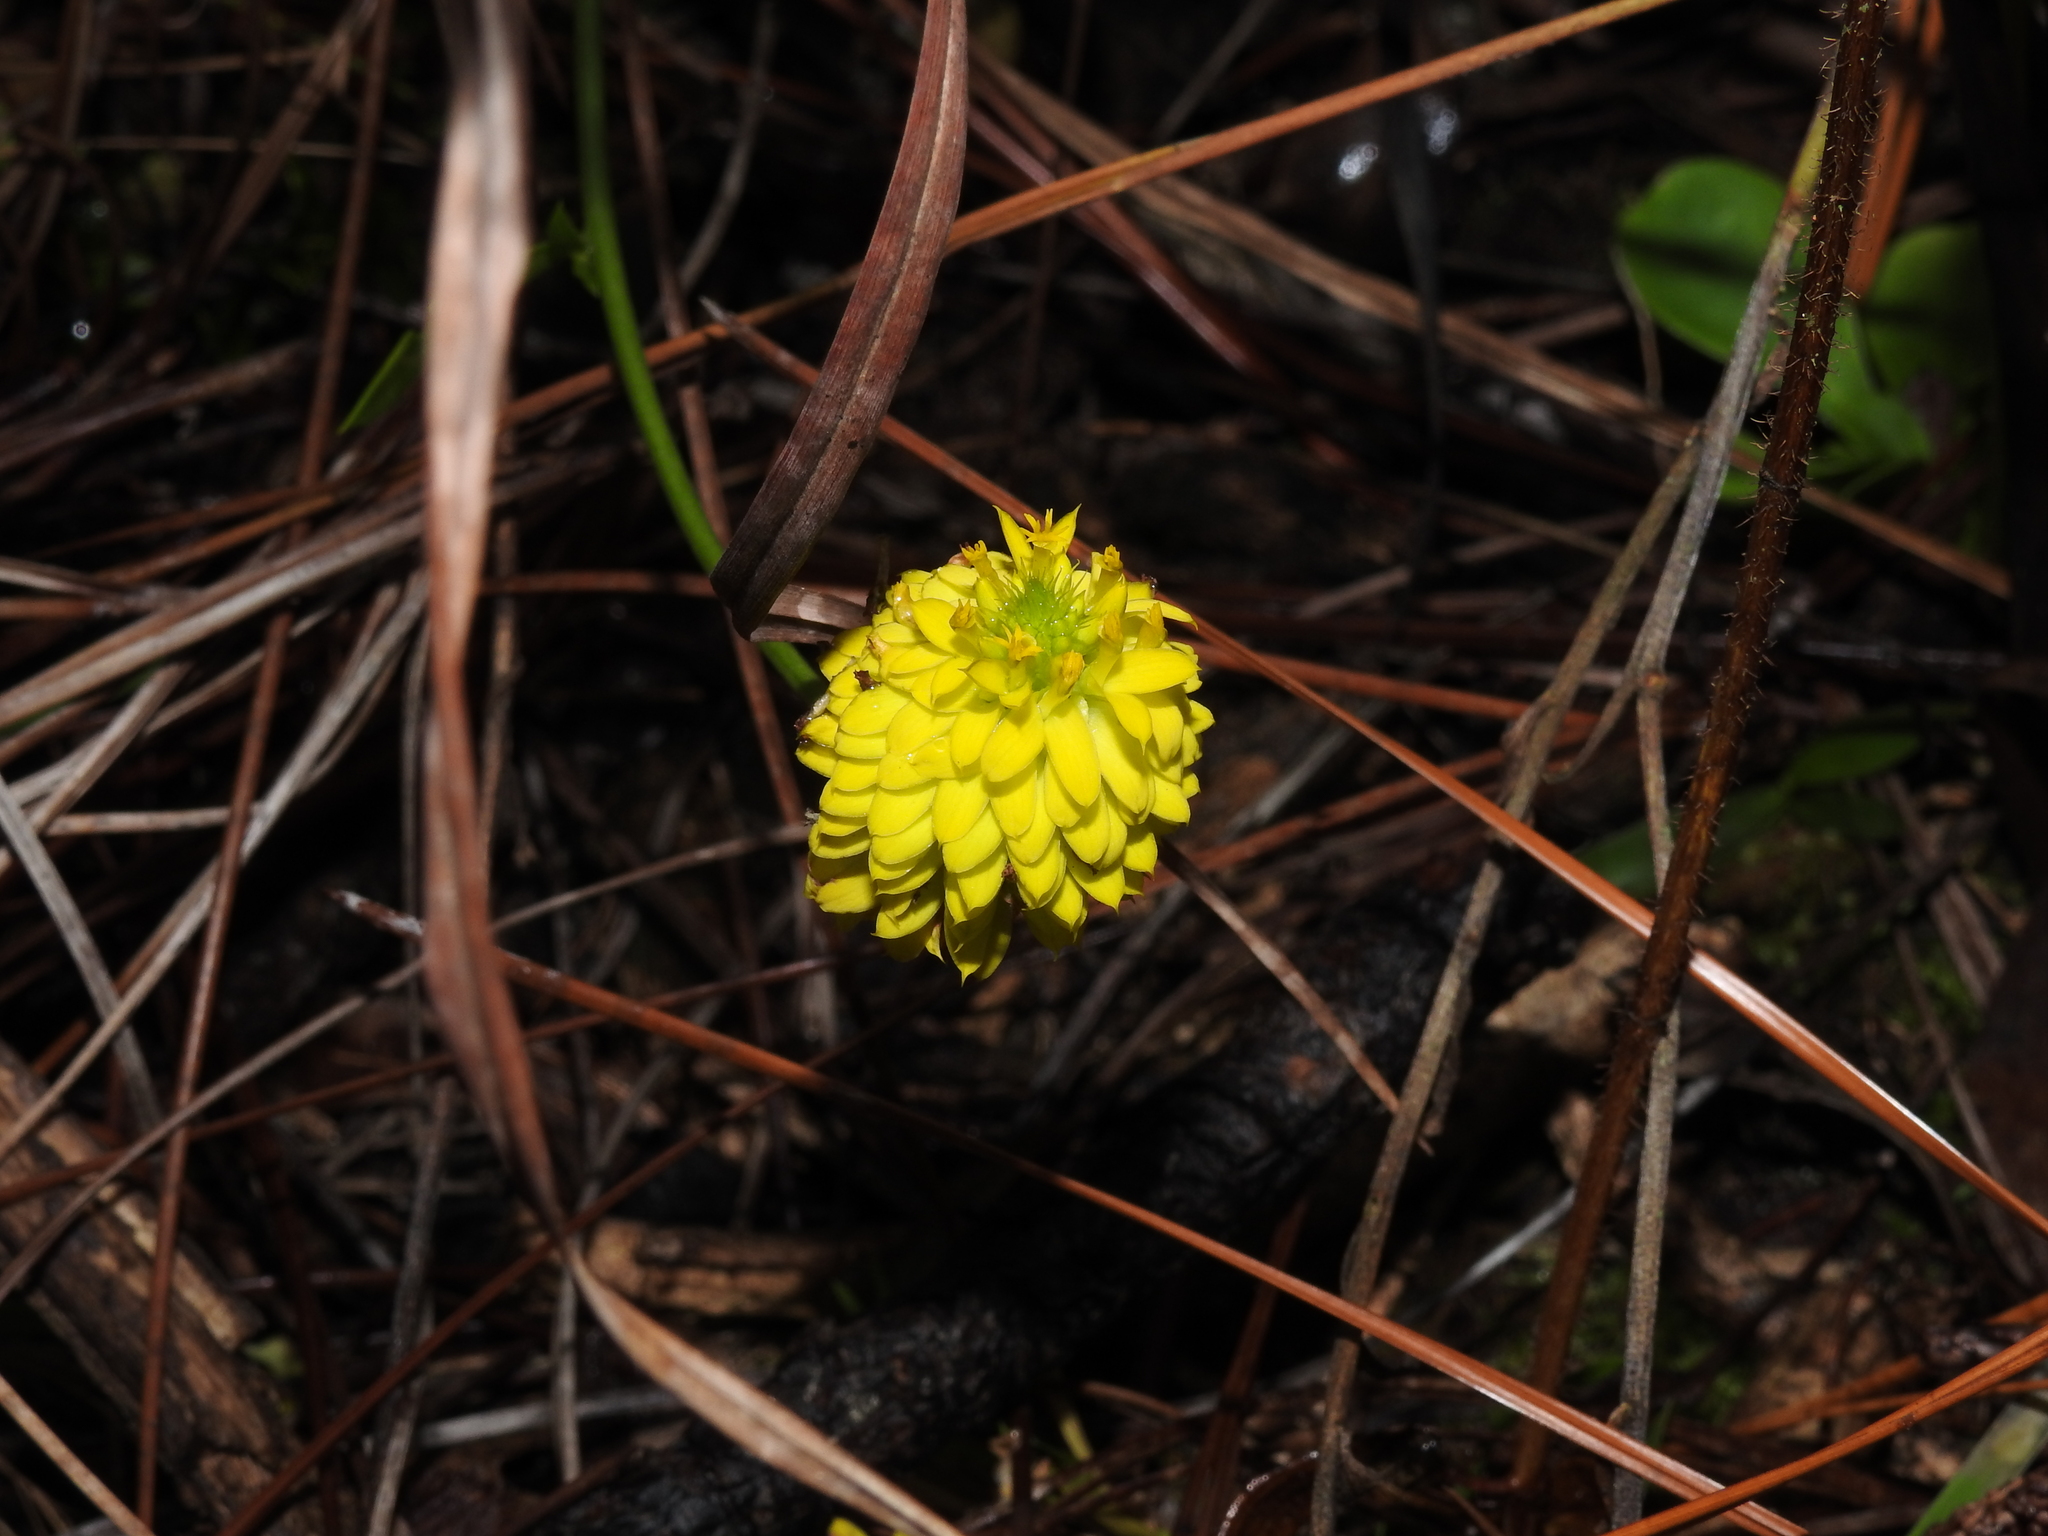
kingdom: Plantae
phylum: Tracheophyta
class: Magnoliopsida
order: Fabales
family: Polygalaceae
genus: Polygala
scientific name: Polygala rugelii
